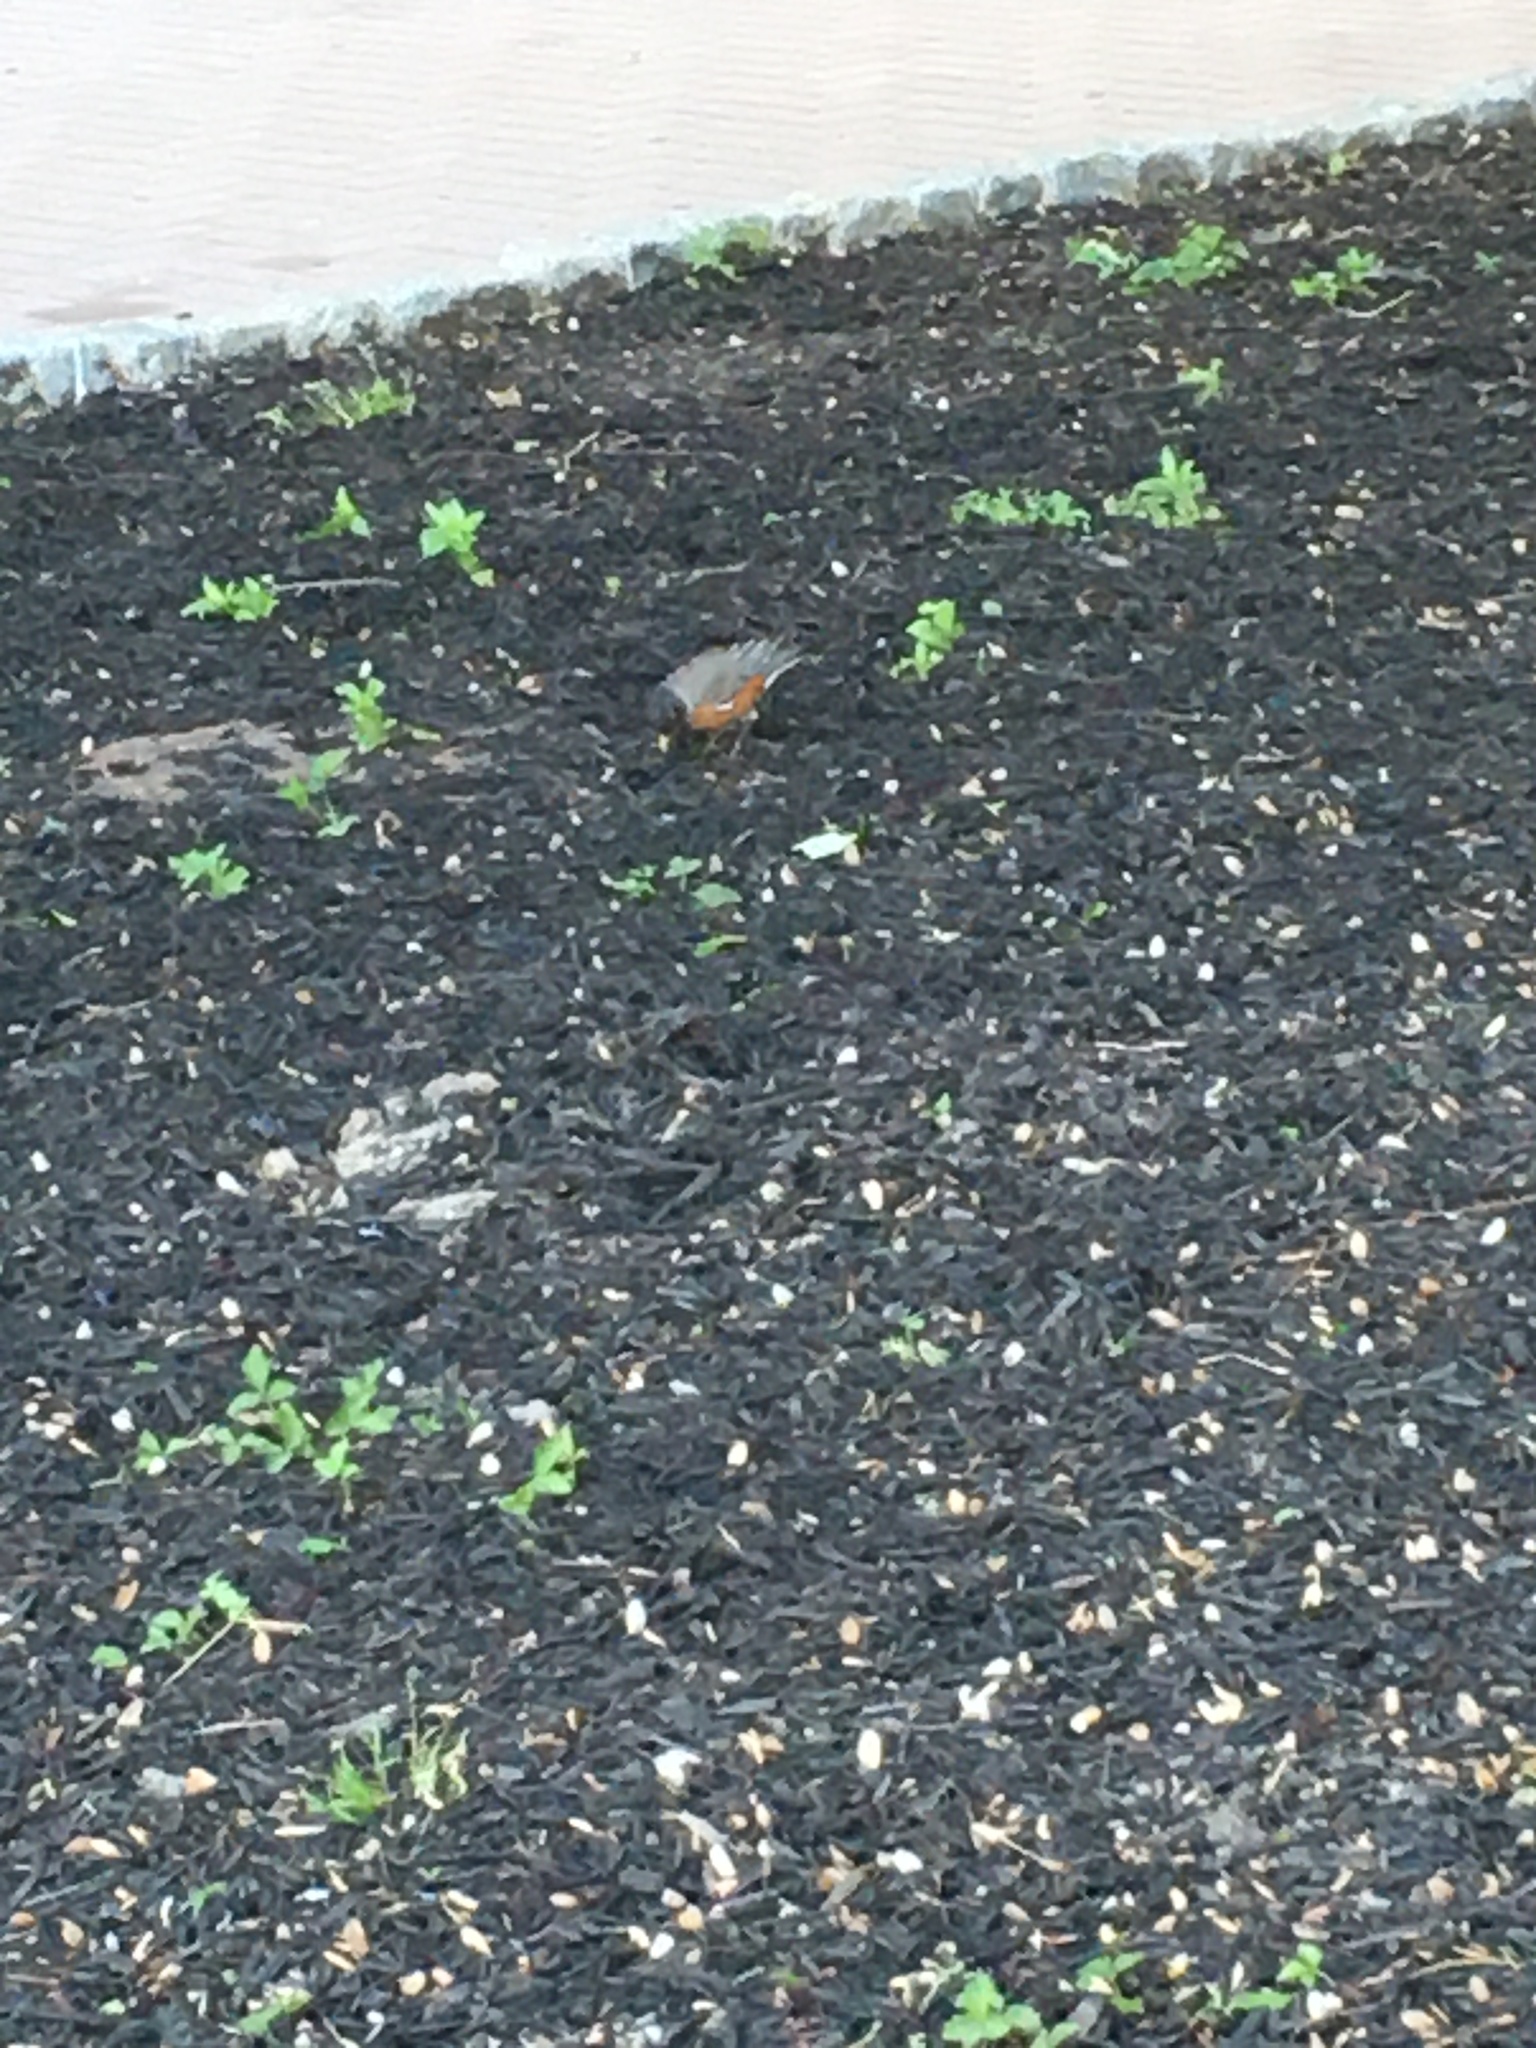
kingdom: Animalia
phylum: Chordata
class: Aves
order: Passeriformes
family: Turdidae
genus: Turdus
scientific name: Turdus migratorius
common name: American robin
